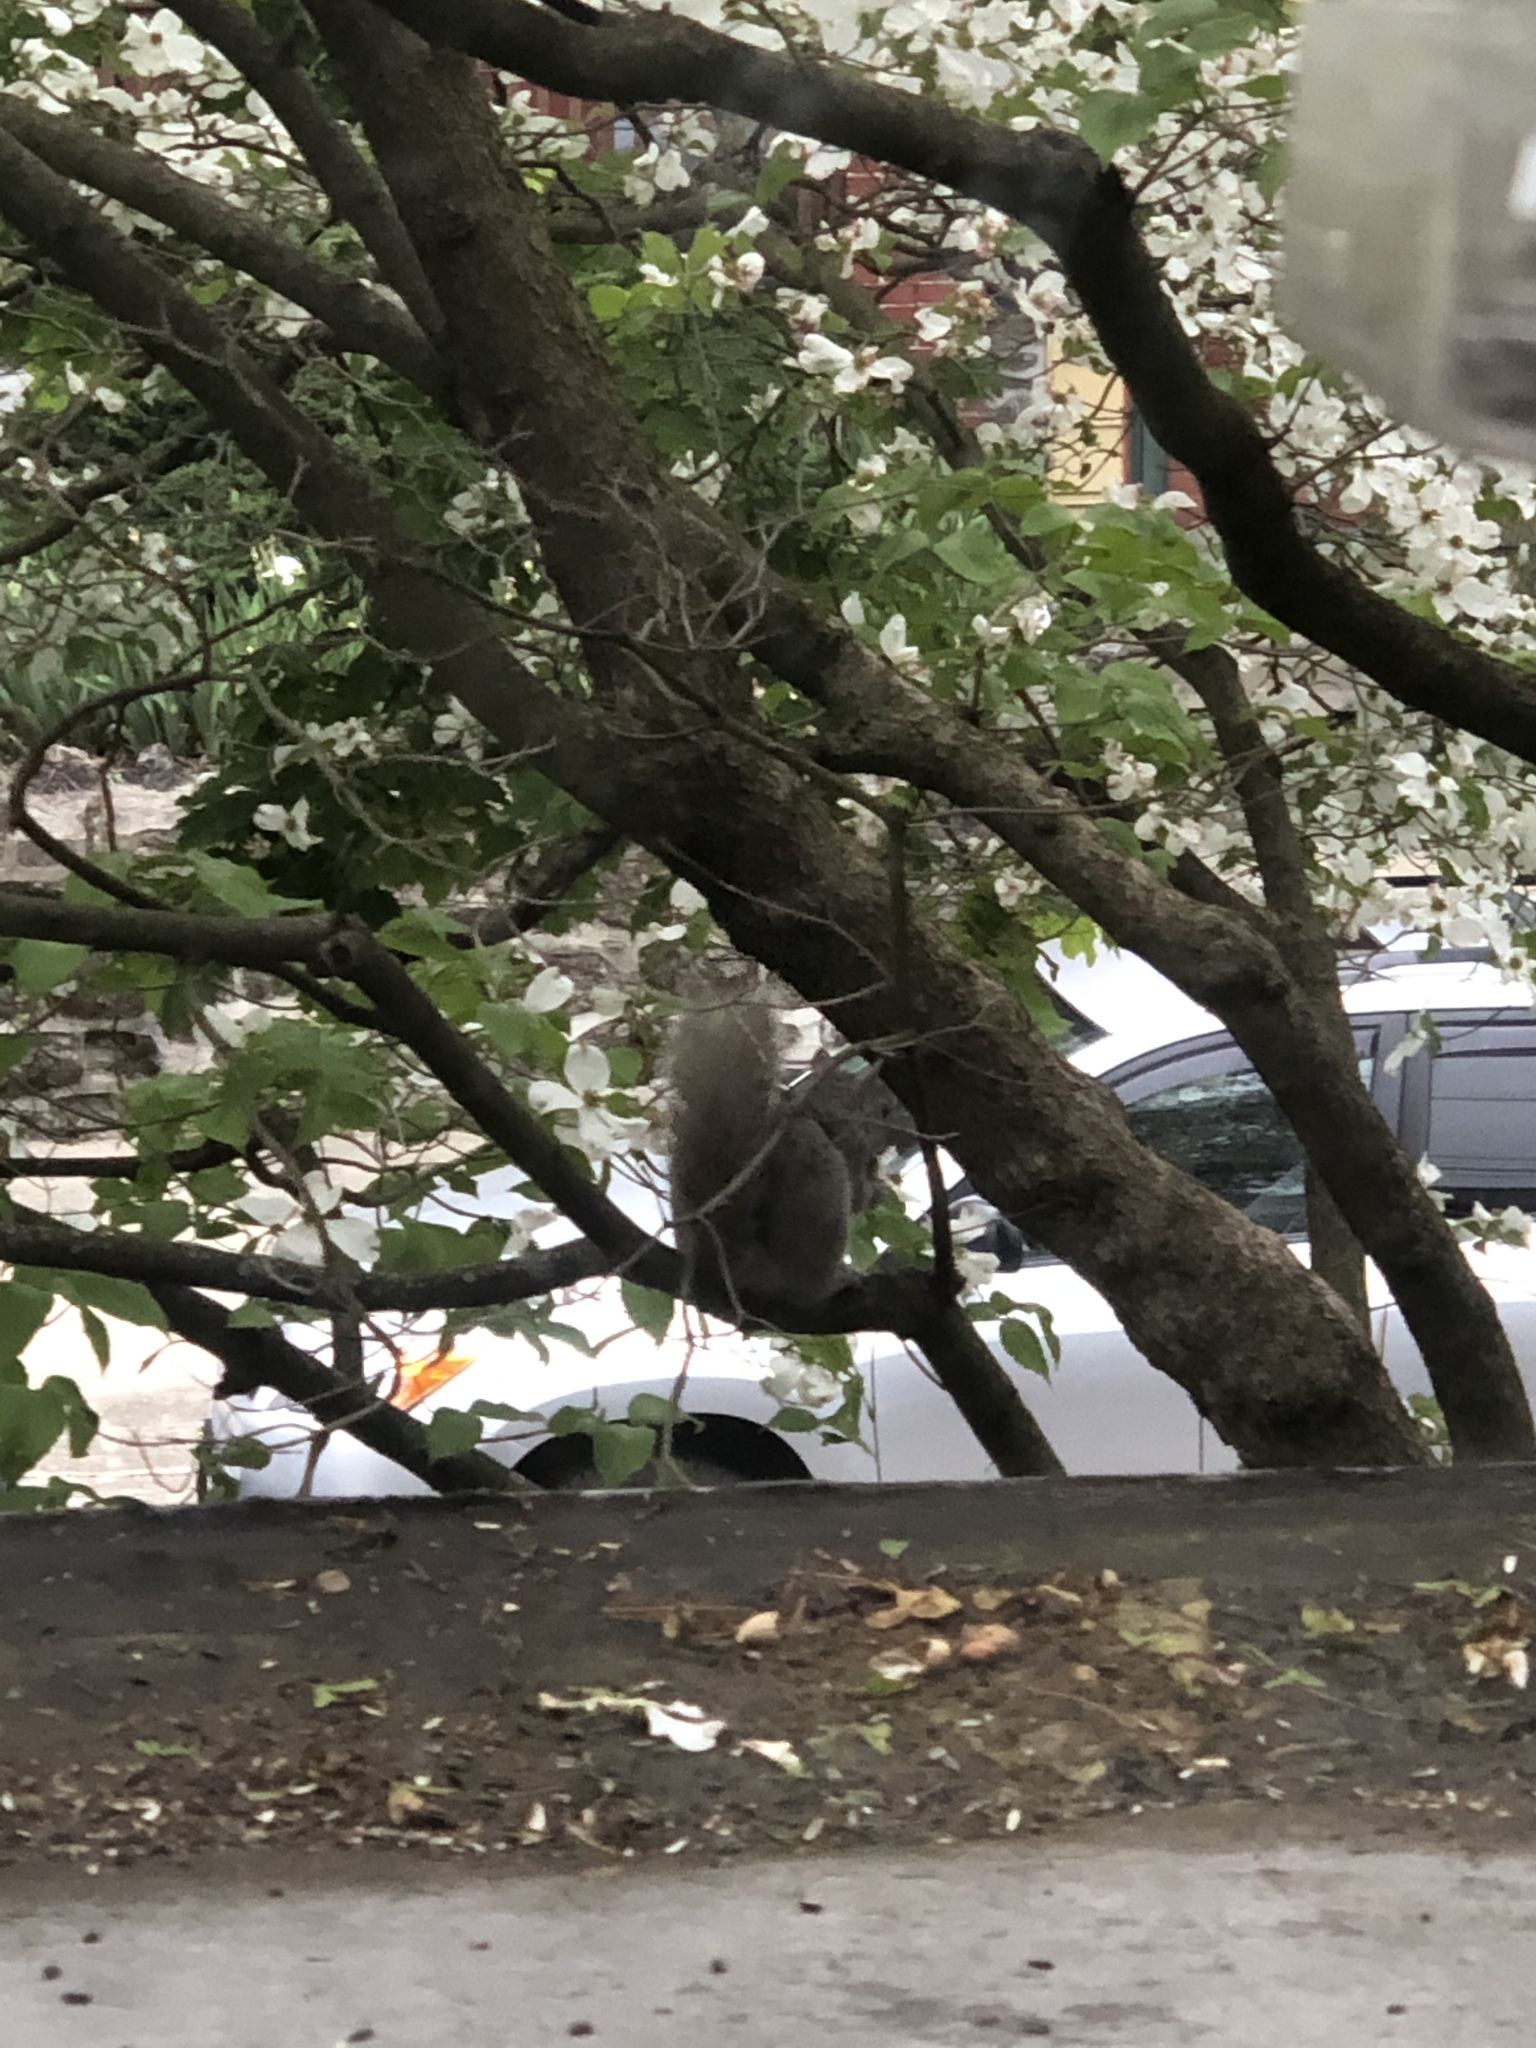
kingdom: Animalia
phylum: Chordata
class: Mammalia
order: Rodentia
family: Sciuridae
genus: Sciurus
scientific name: Sciurus carolinensis
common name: Eastern gray squirrel
